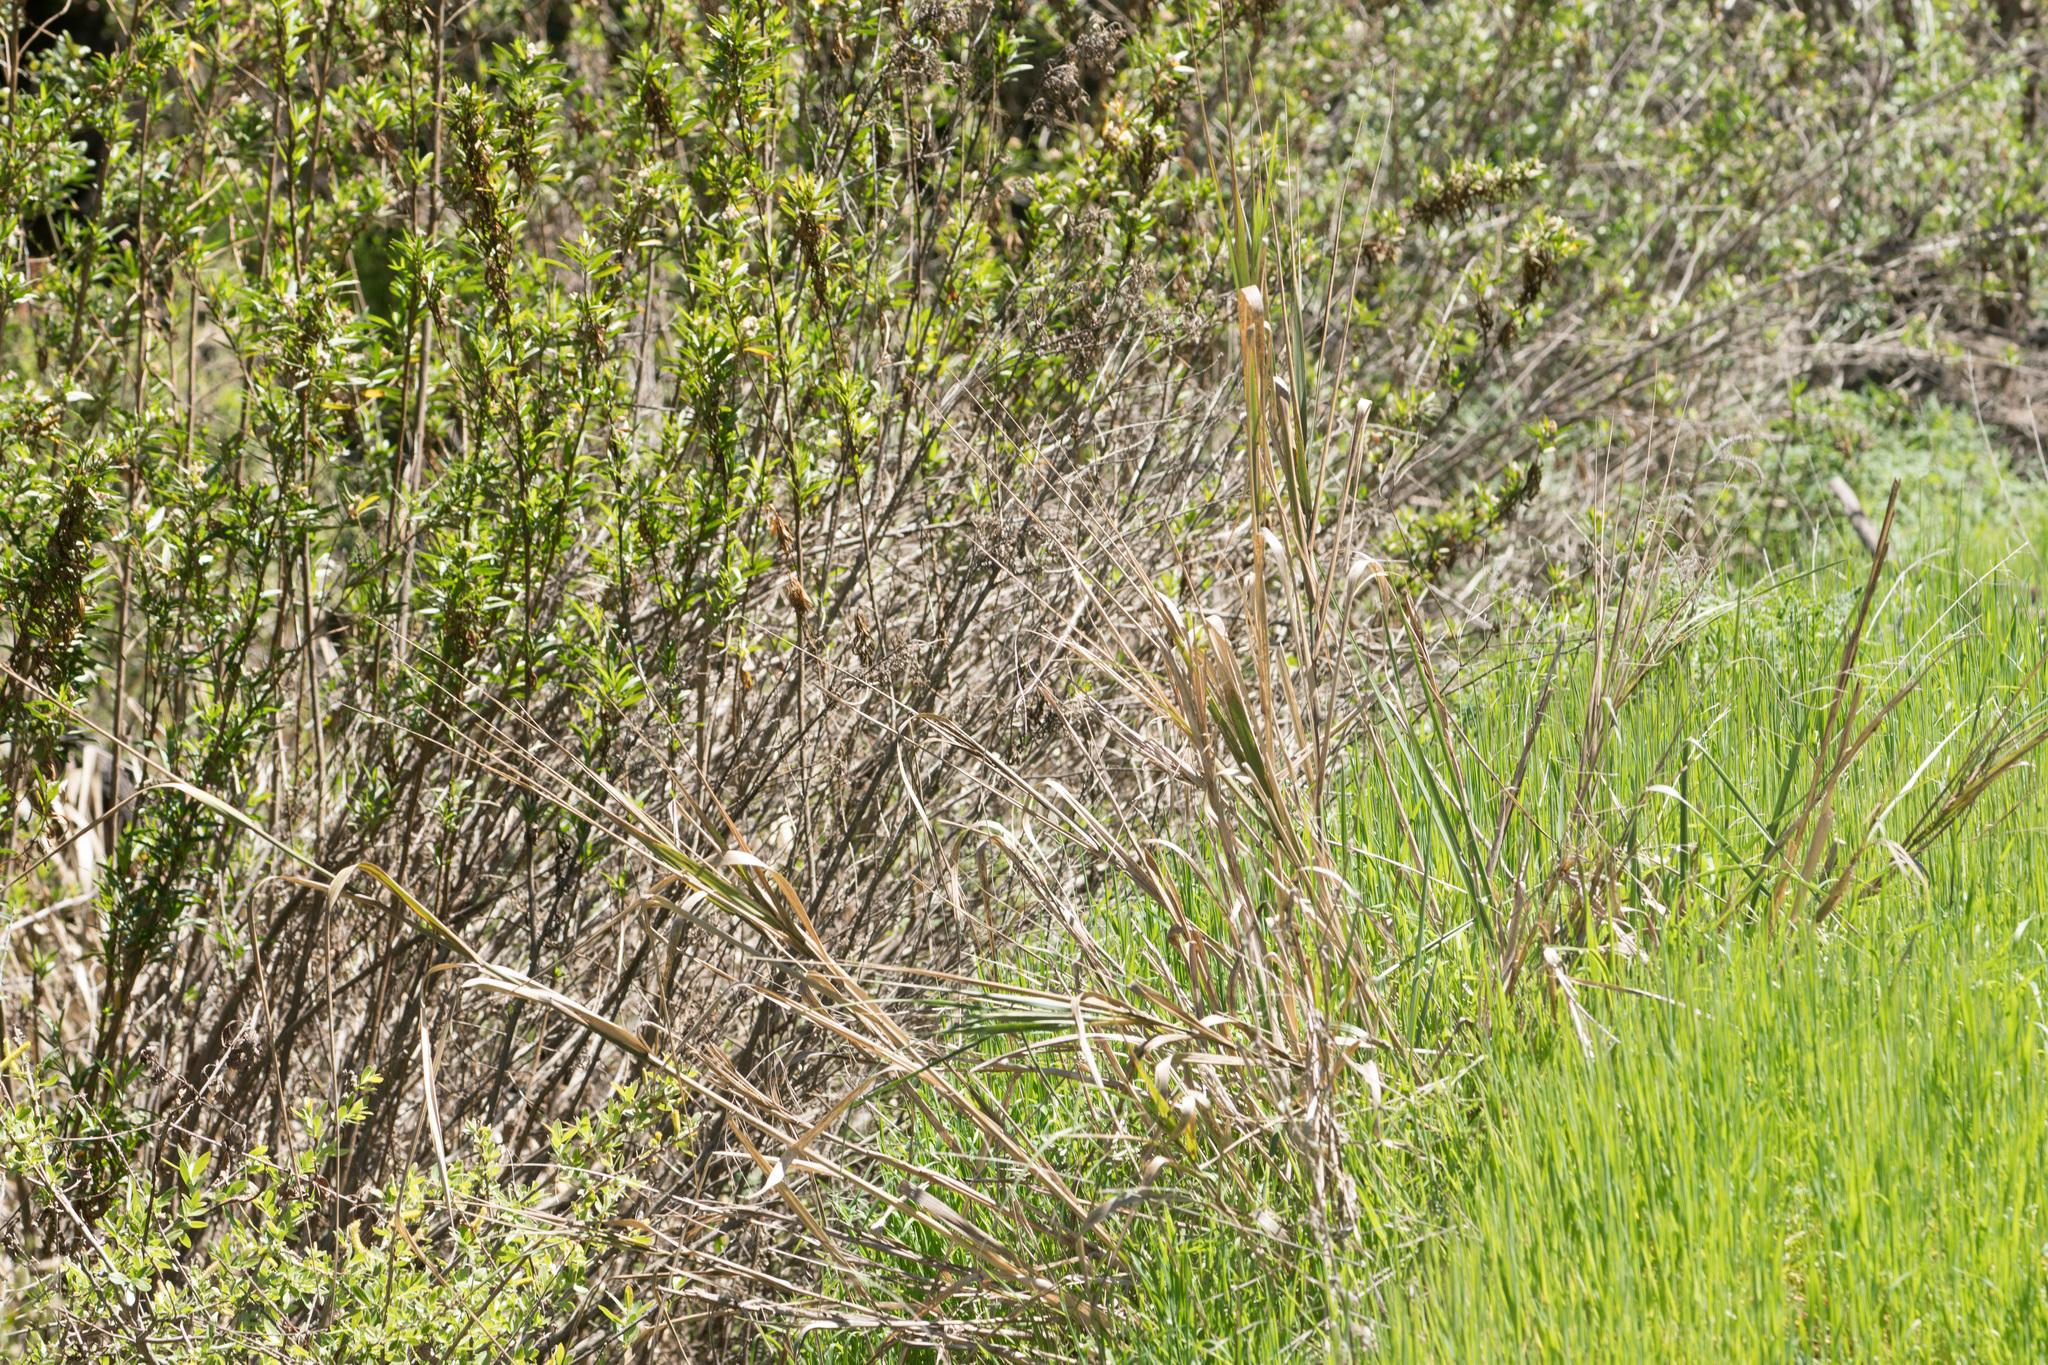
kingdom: Plantae
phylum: Tracheophyta
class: Liliopsida
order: Poales
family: Poaceae
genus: Leymus
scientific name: Leymus condensatus
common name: Giant wild rye
